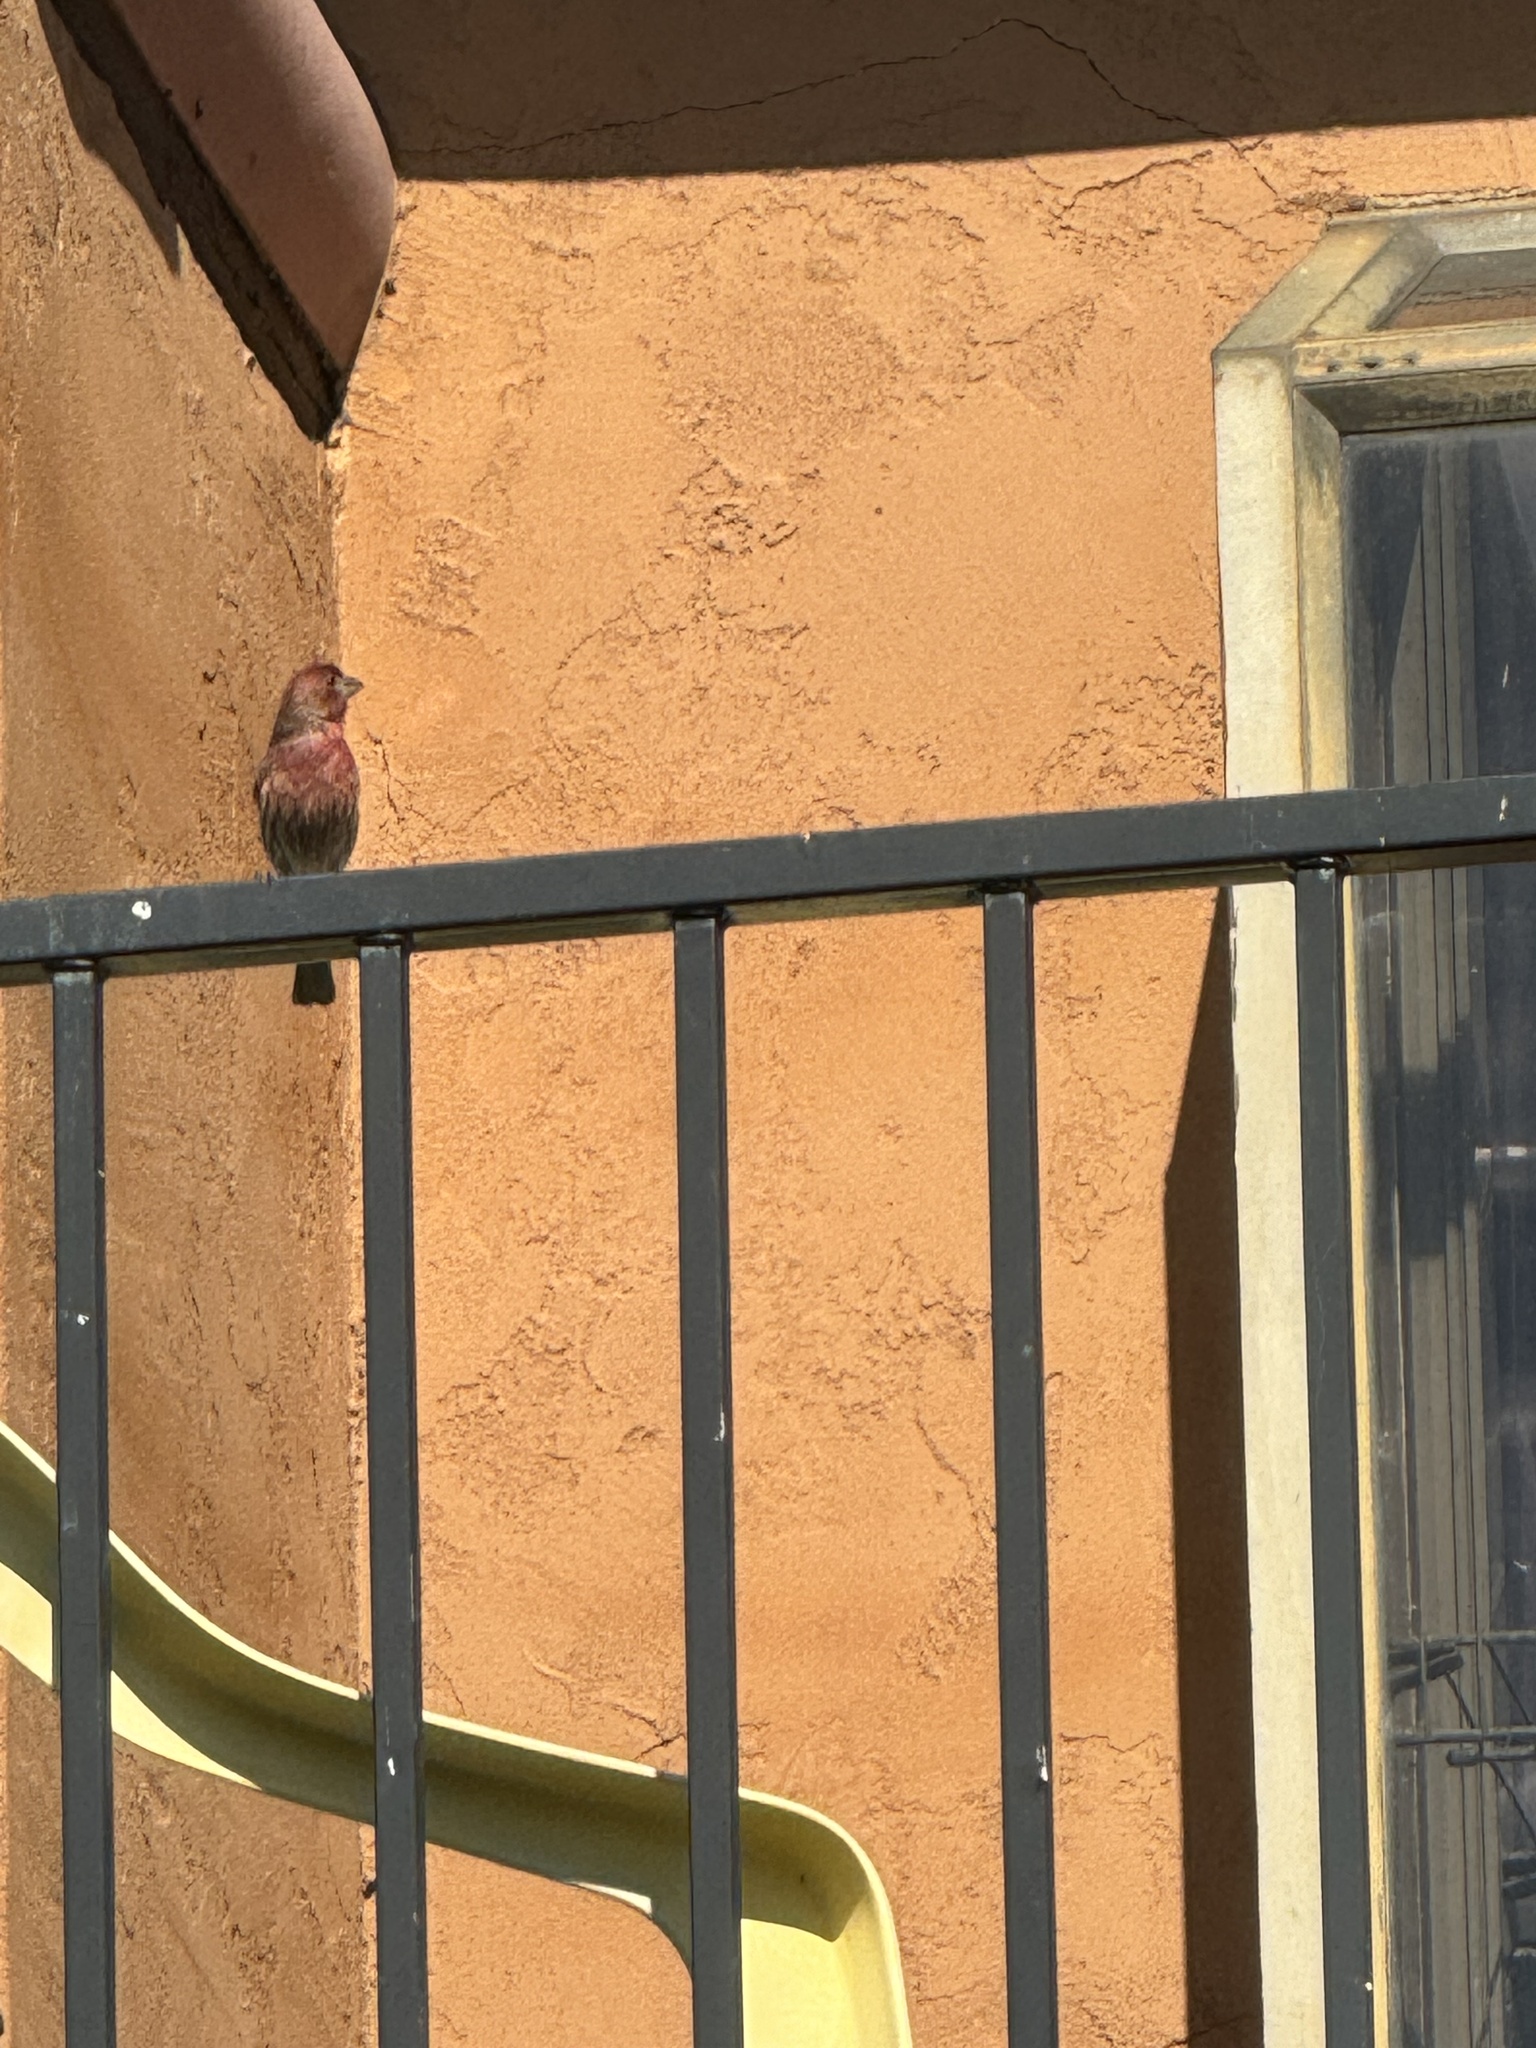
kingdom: Animalia
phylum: Chordata
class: Aves
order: Passeriformes
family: Fringillidae
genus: Haemorhous
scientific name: Haemorhous mexicanus
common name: House finch
